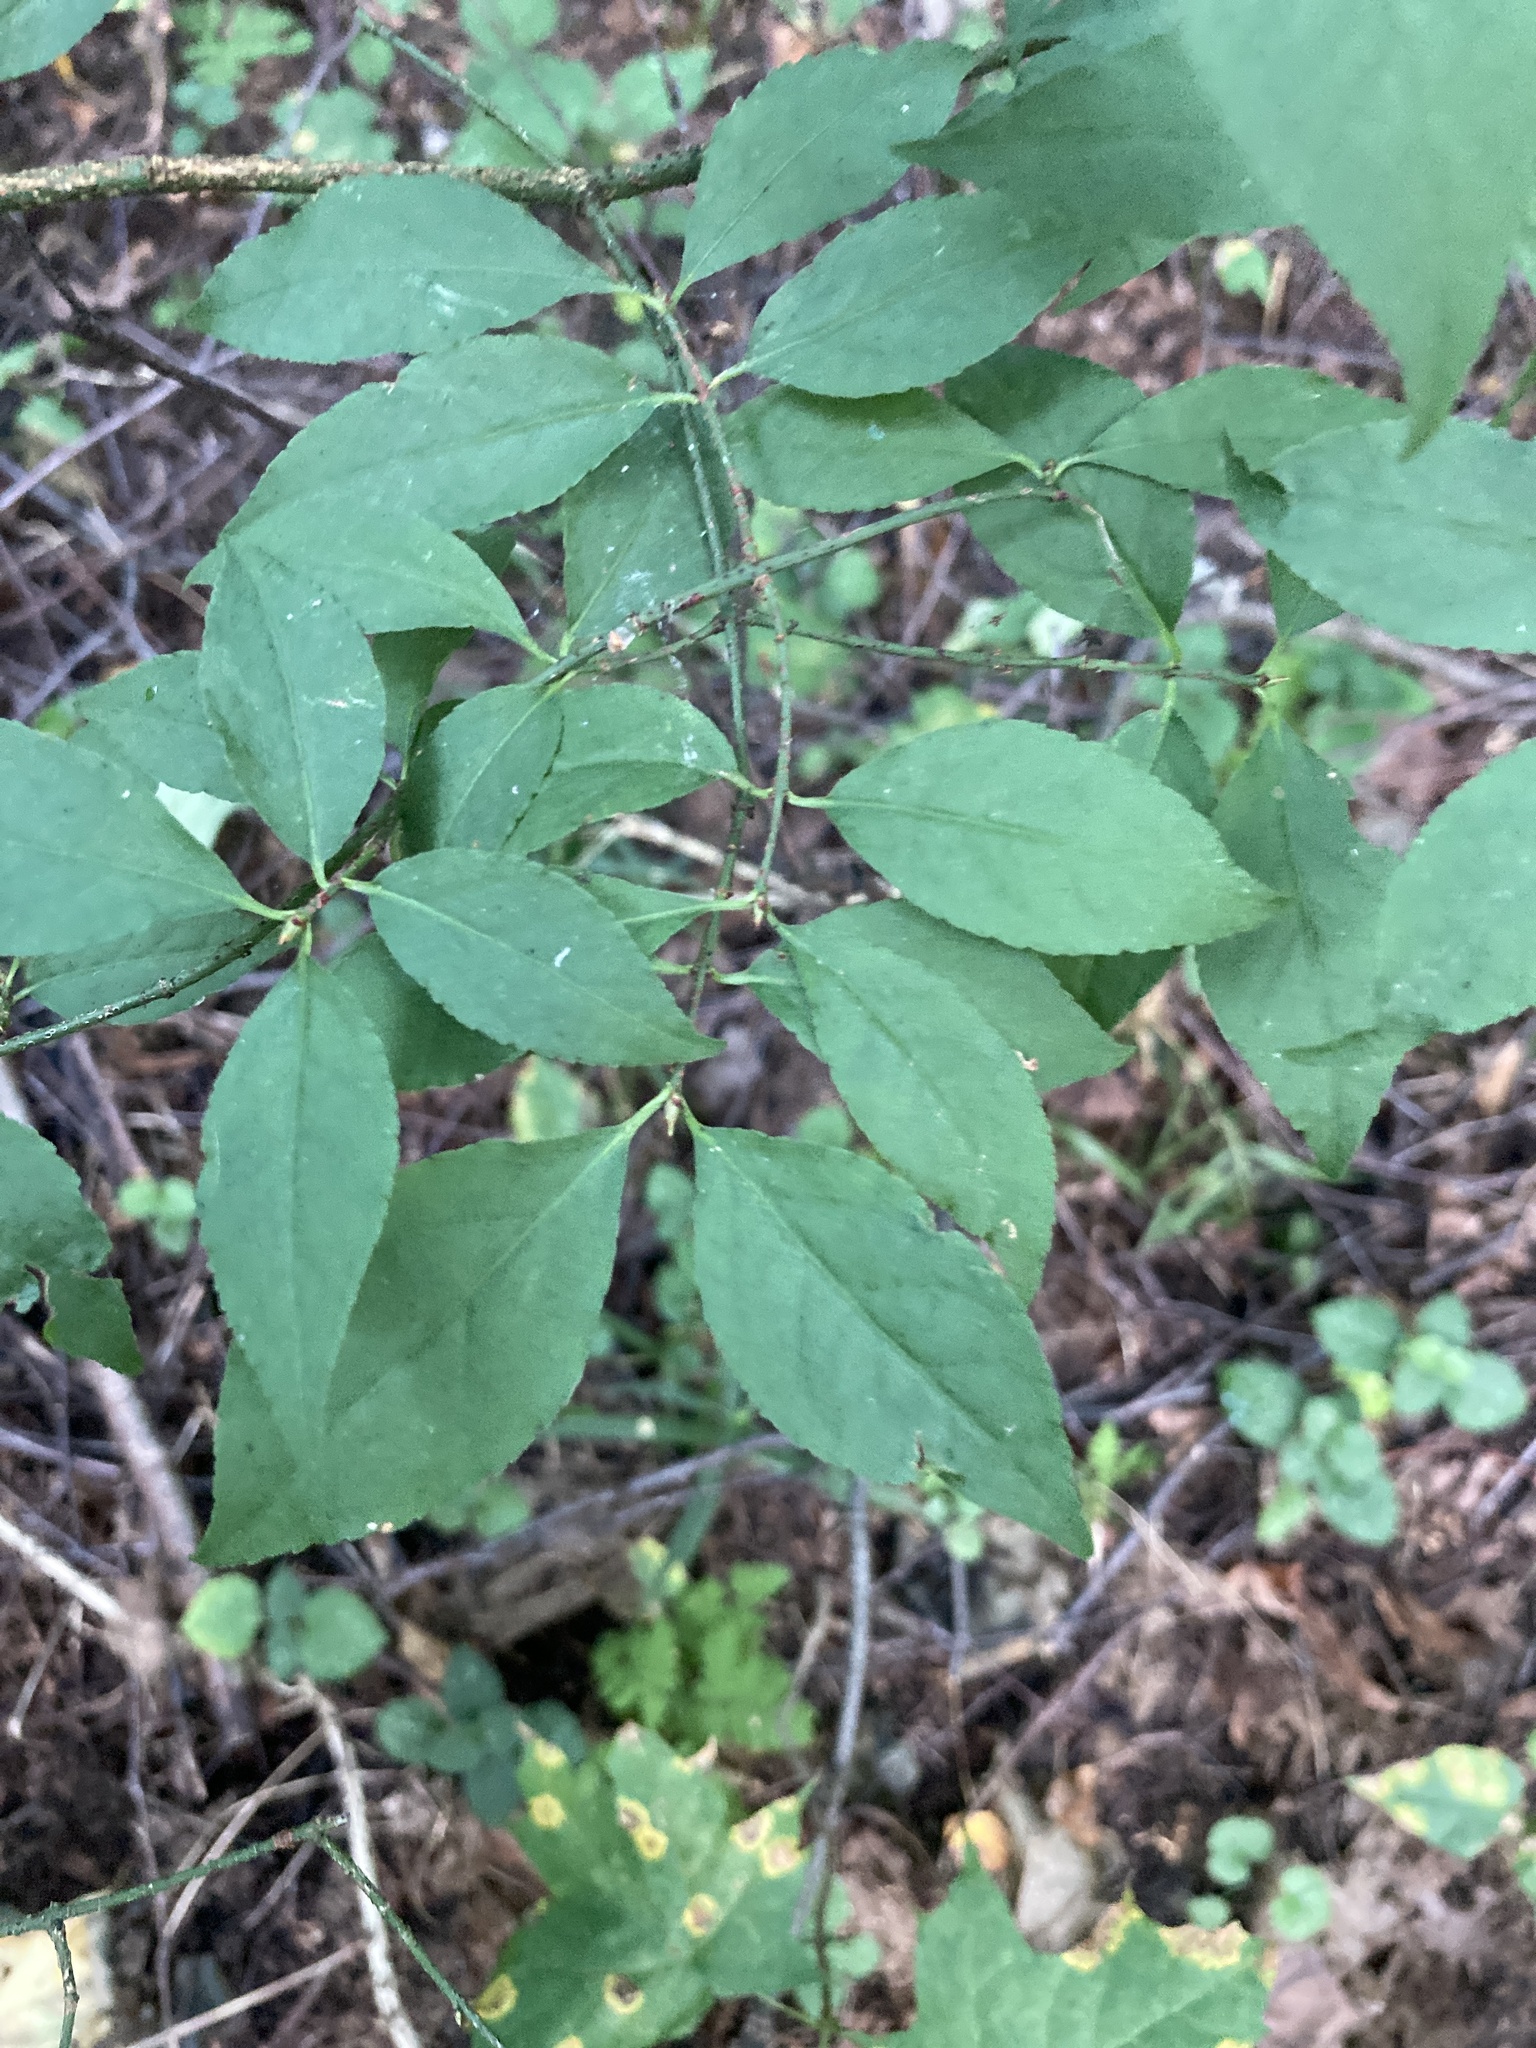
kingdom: Plantae
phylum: Tracheophyta
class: Magnoliopsida
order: Celastrales
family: Celastraceae
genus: Euonymus
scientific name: Euonymus verrucosus
